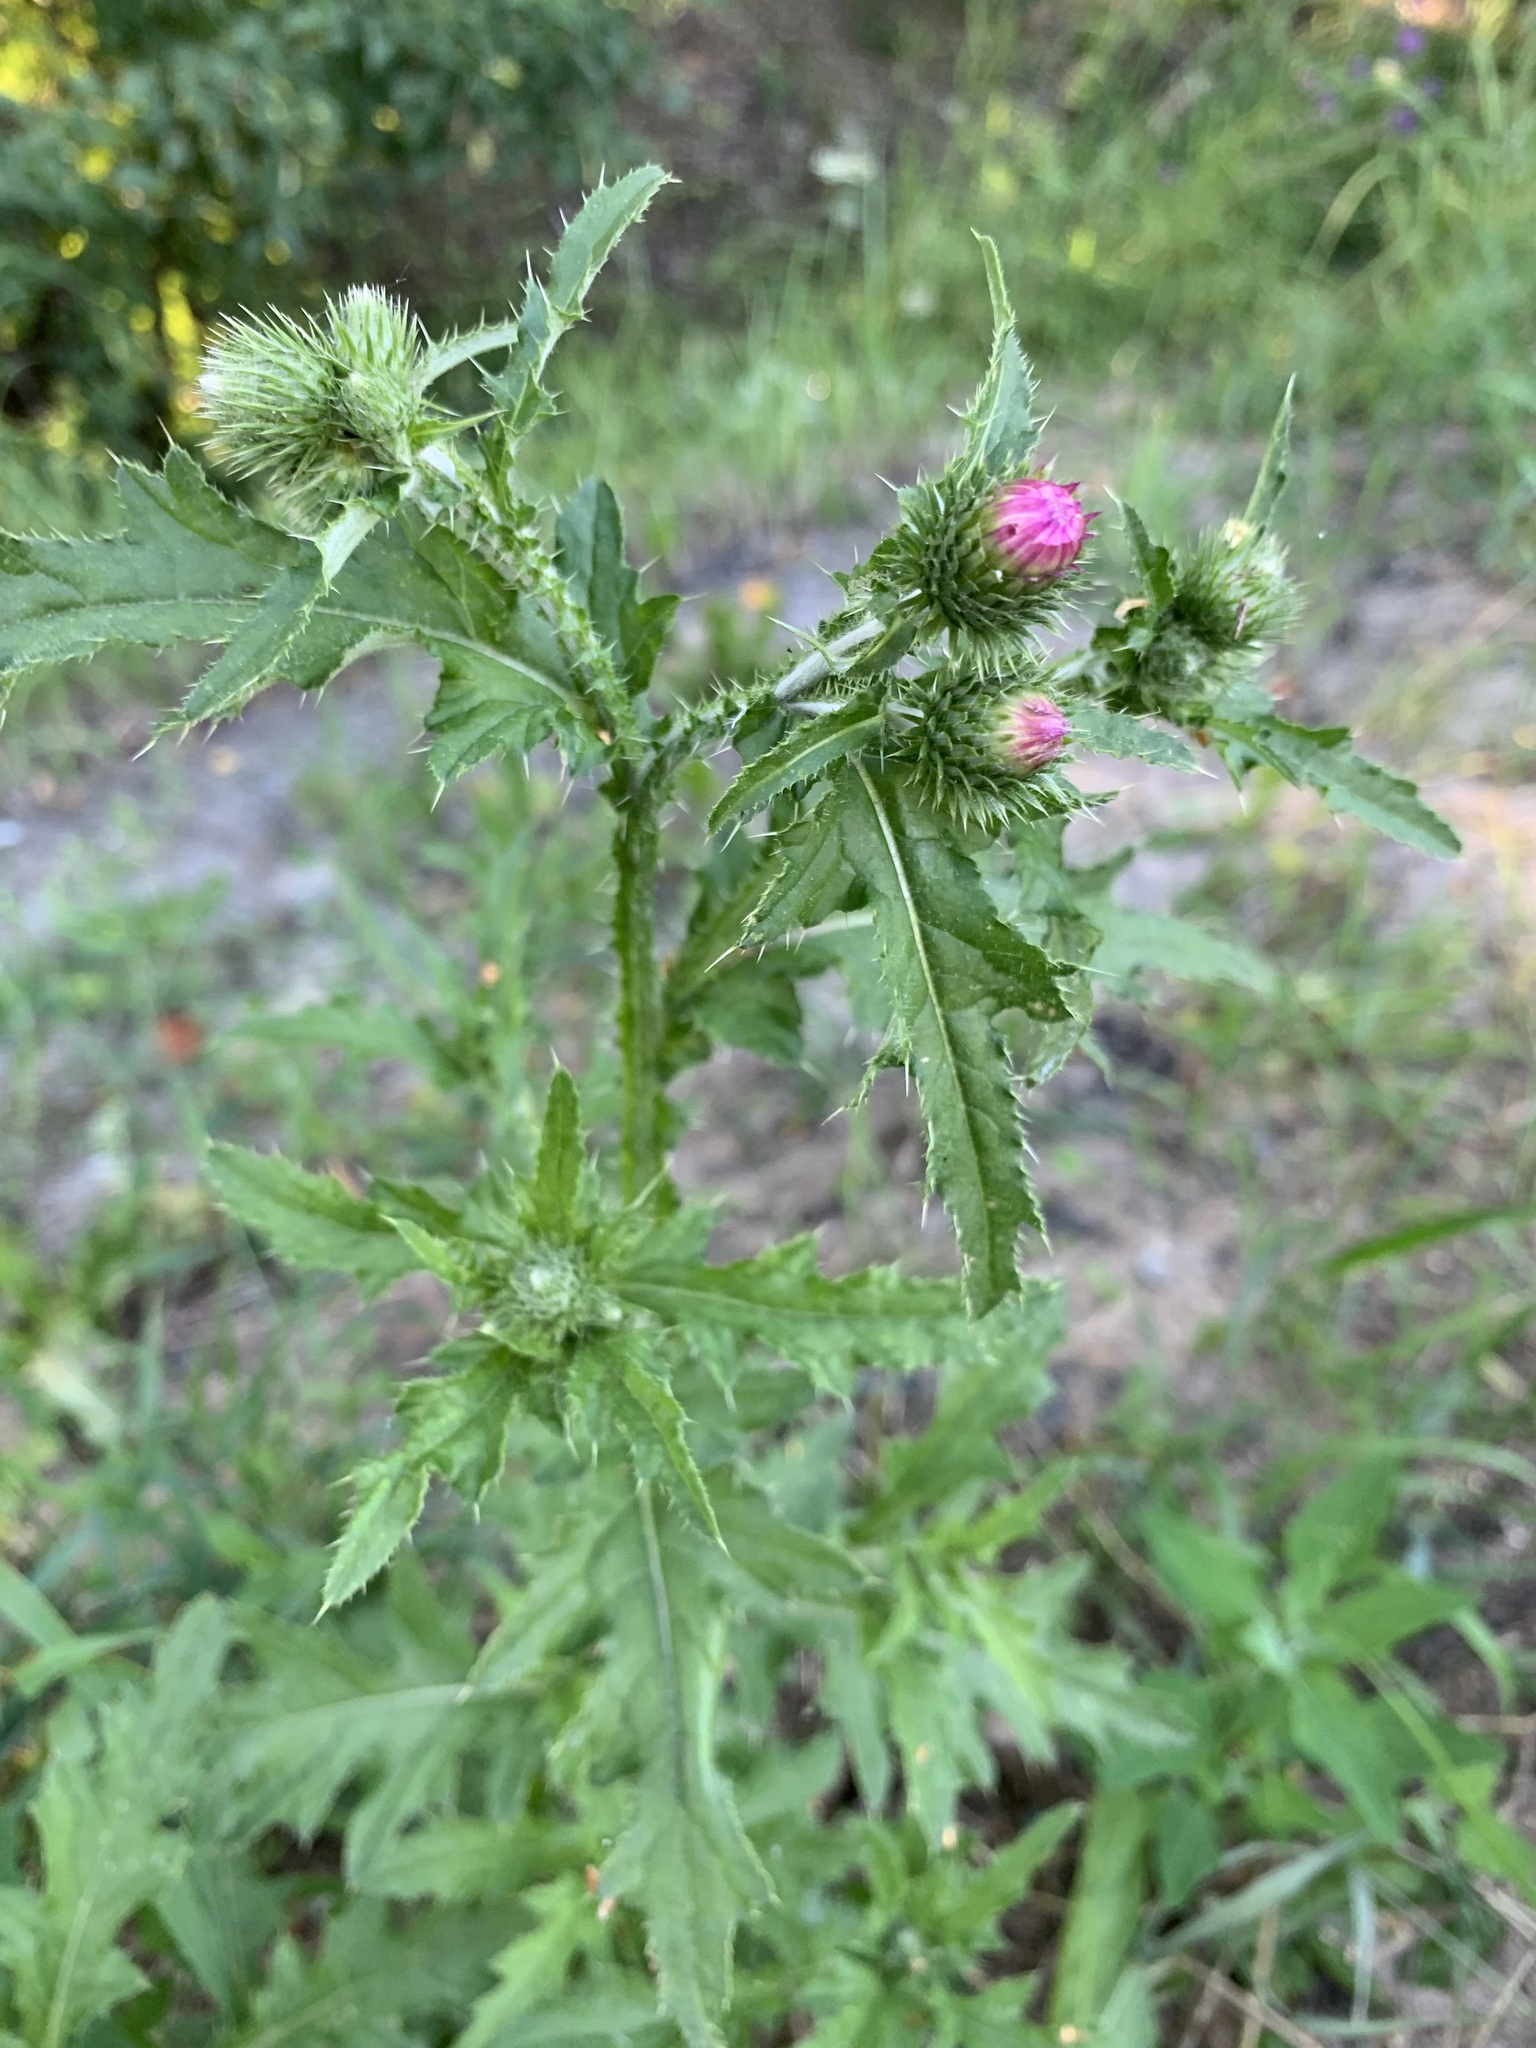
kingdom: Plantae
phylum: Tracheophyta
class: Magnoliopsida
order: Asterales
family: Asteraceae
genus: Carduus
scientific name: Carduus crispus
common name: Welted thistle
